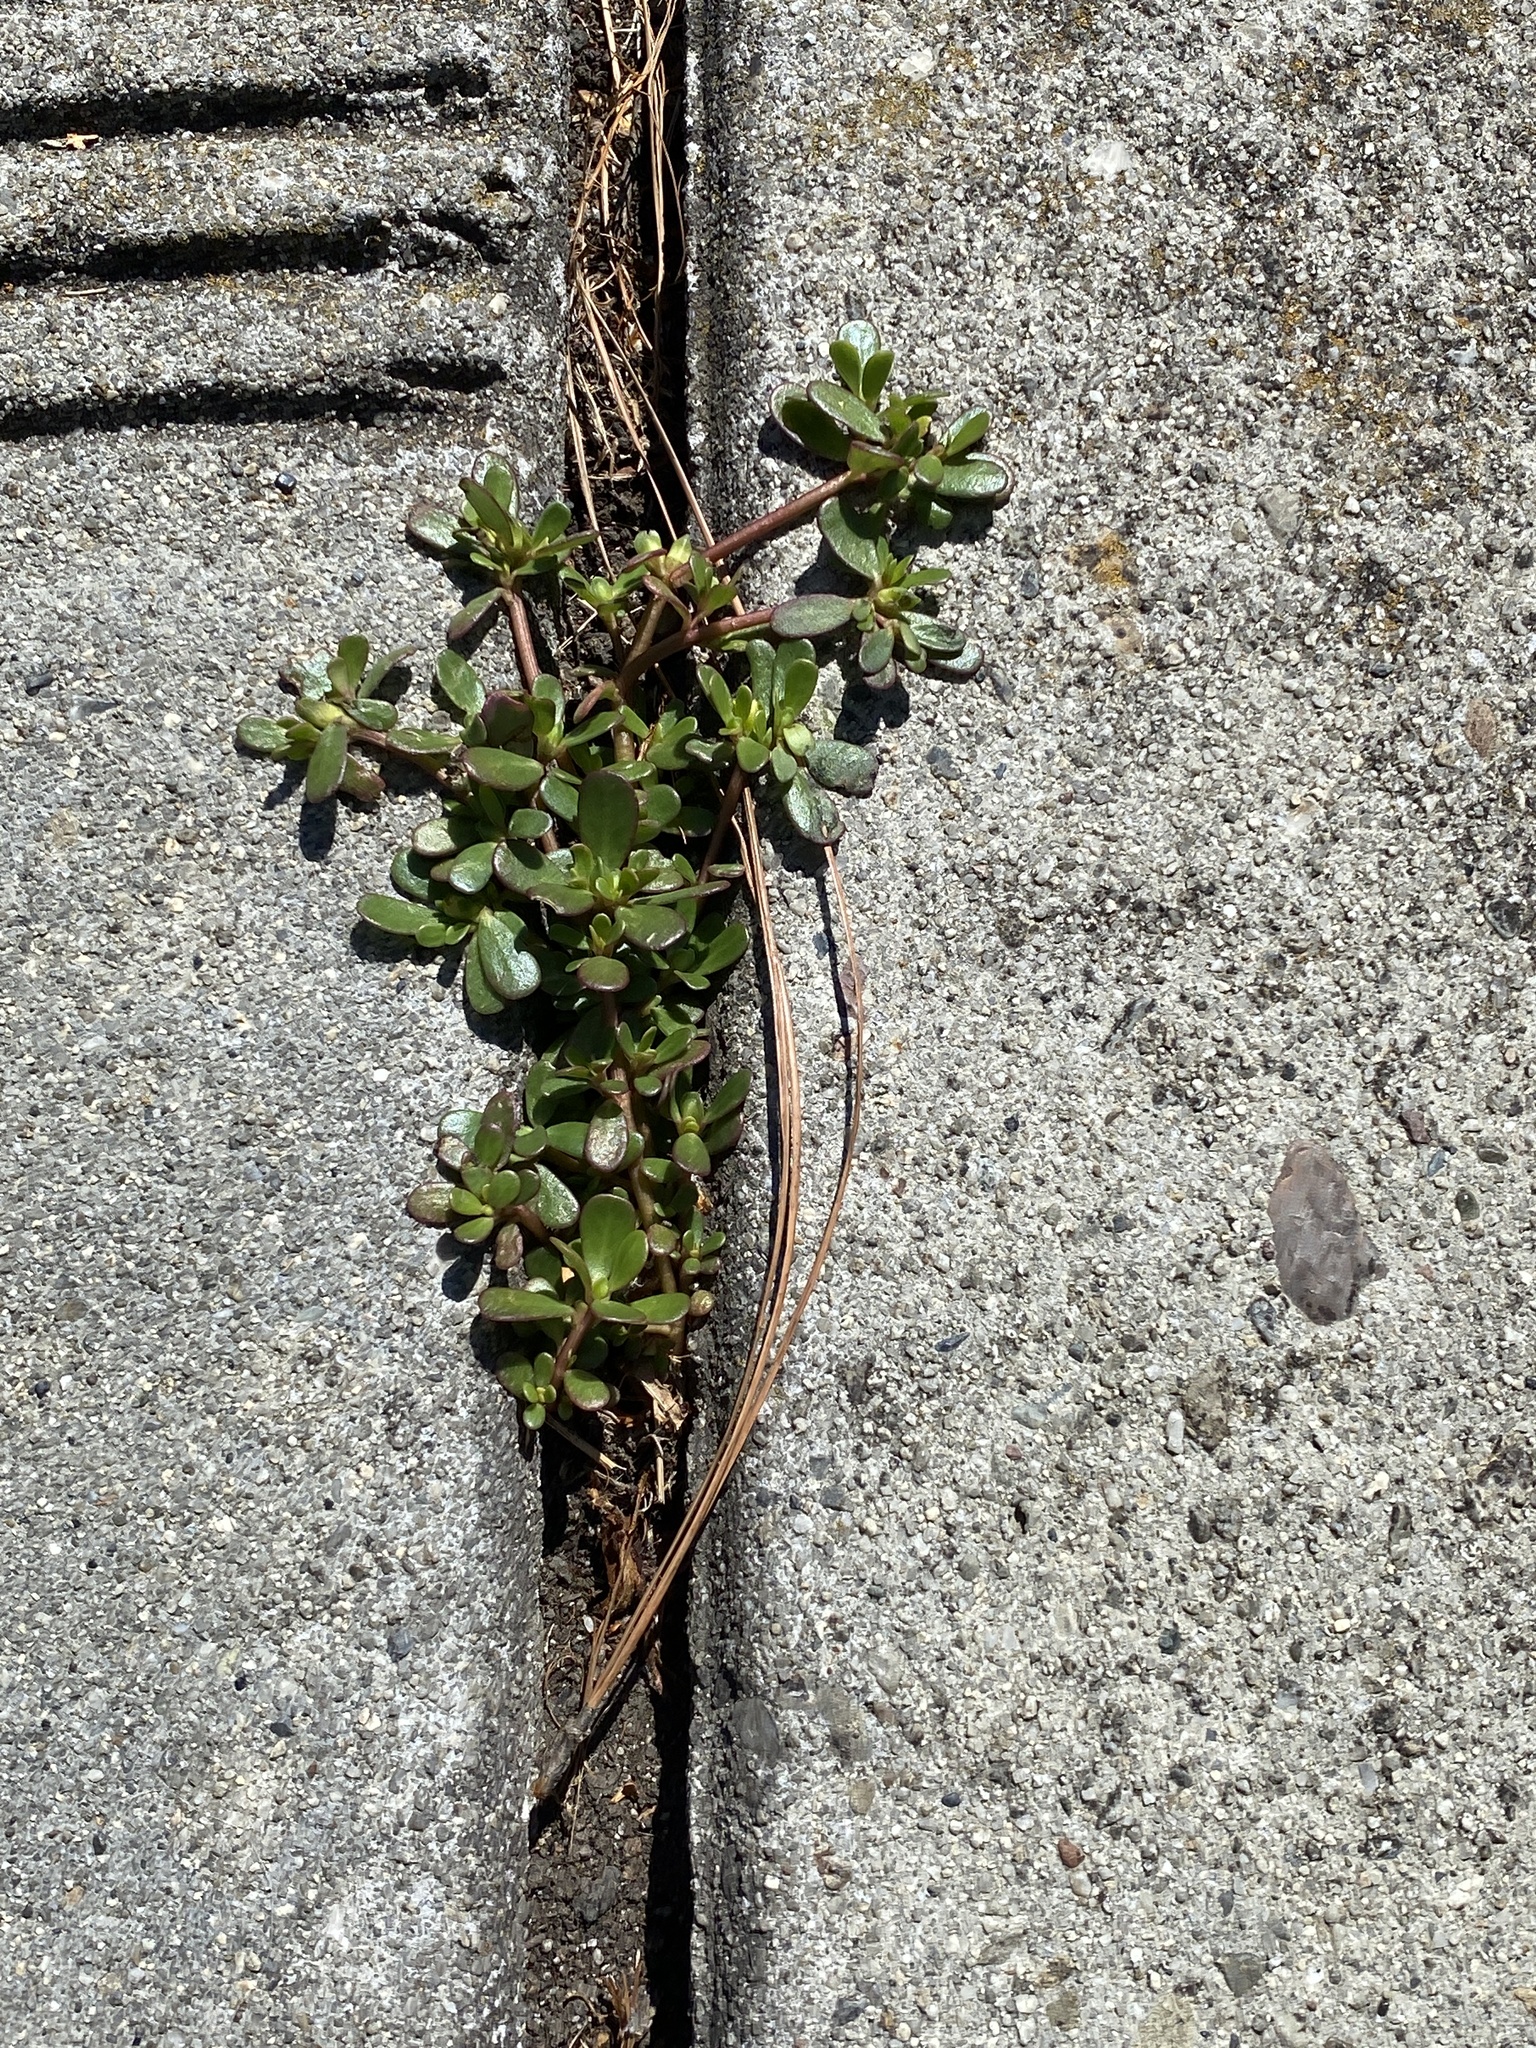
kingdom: Plantae
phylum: Tracheophyta
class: Magnoliopsida
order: Caryophyllales
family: Portulacaceae
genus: Portulaca
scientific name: Portulaca oleracea
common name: Common purslane
